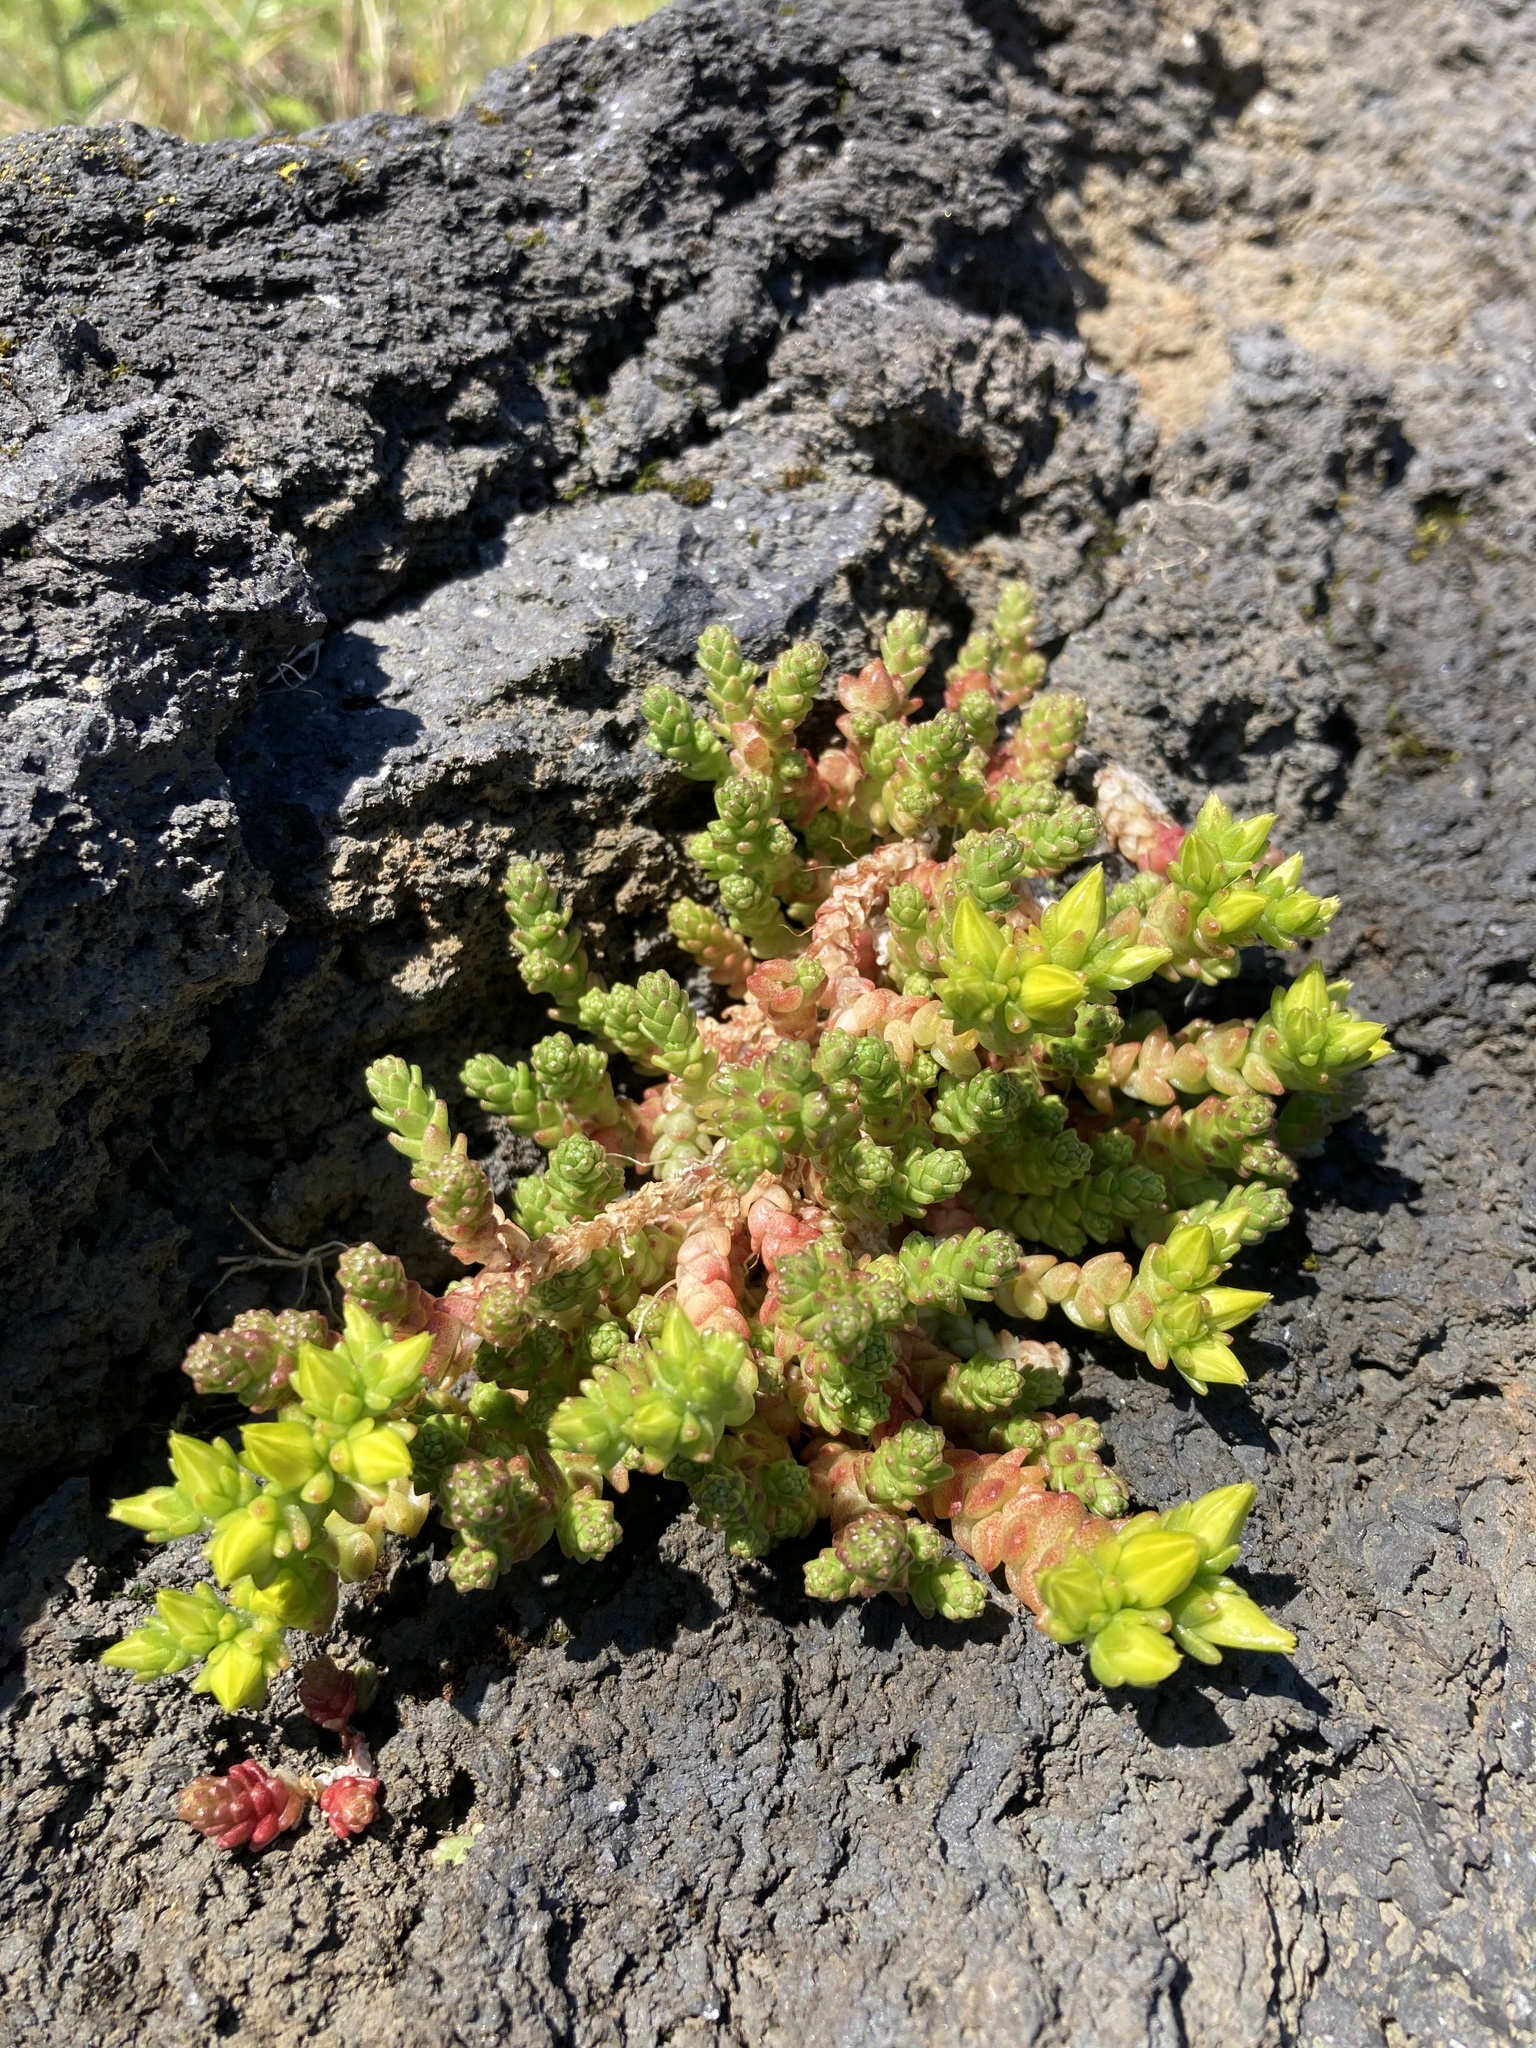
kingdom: Plantae
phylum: Tracheophyta
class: Magnoliopsida
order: Saxifragales
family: Crassulaceae
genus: Sedum
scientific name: Sedum acre
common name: Biting stonecrop
